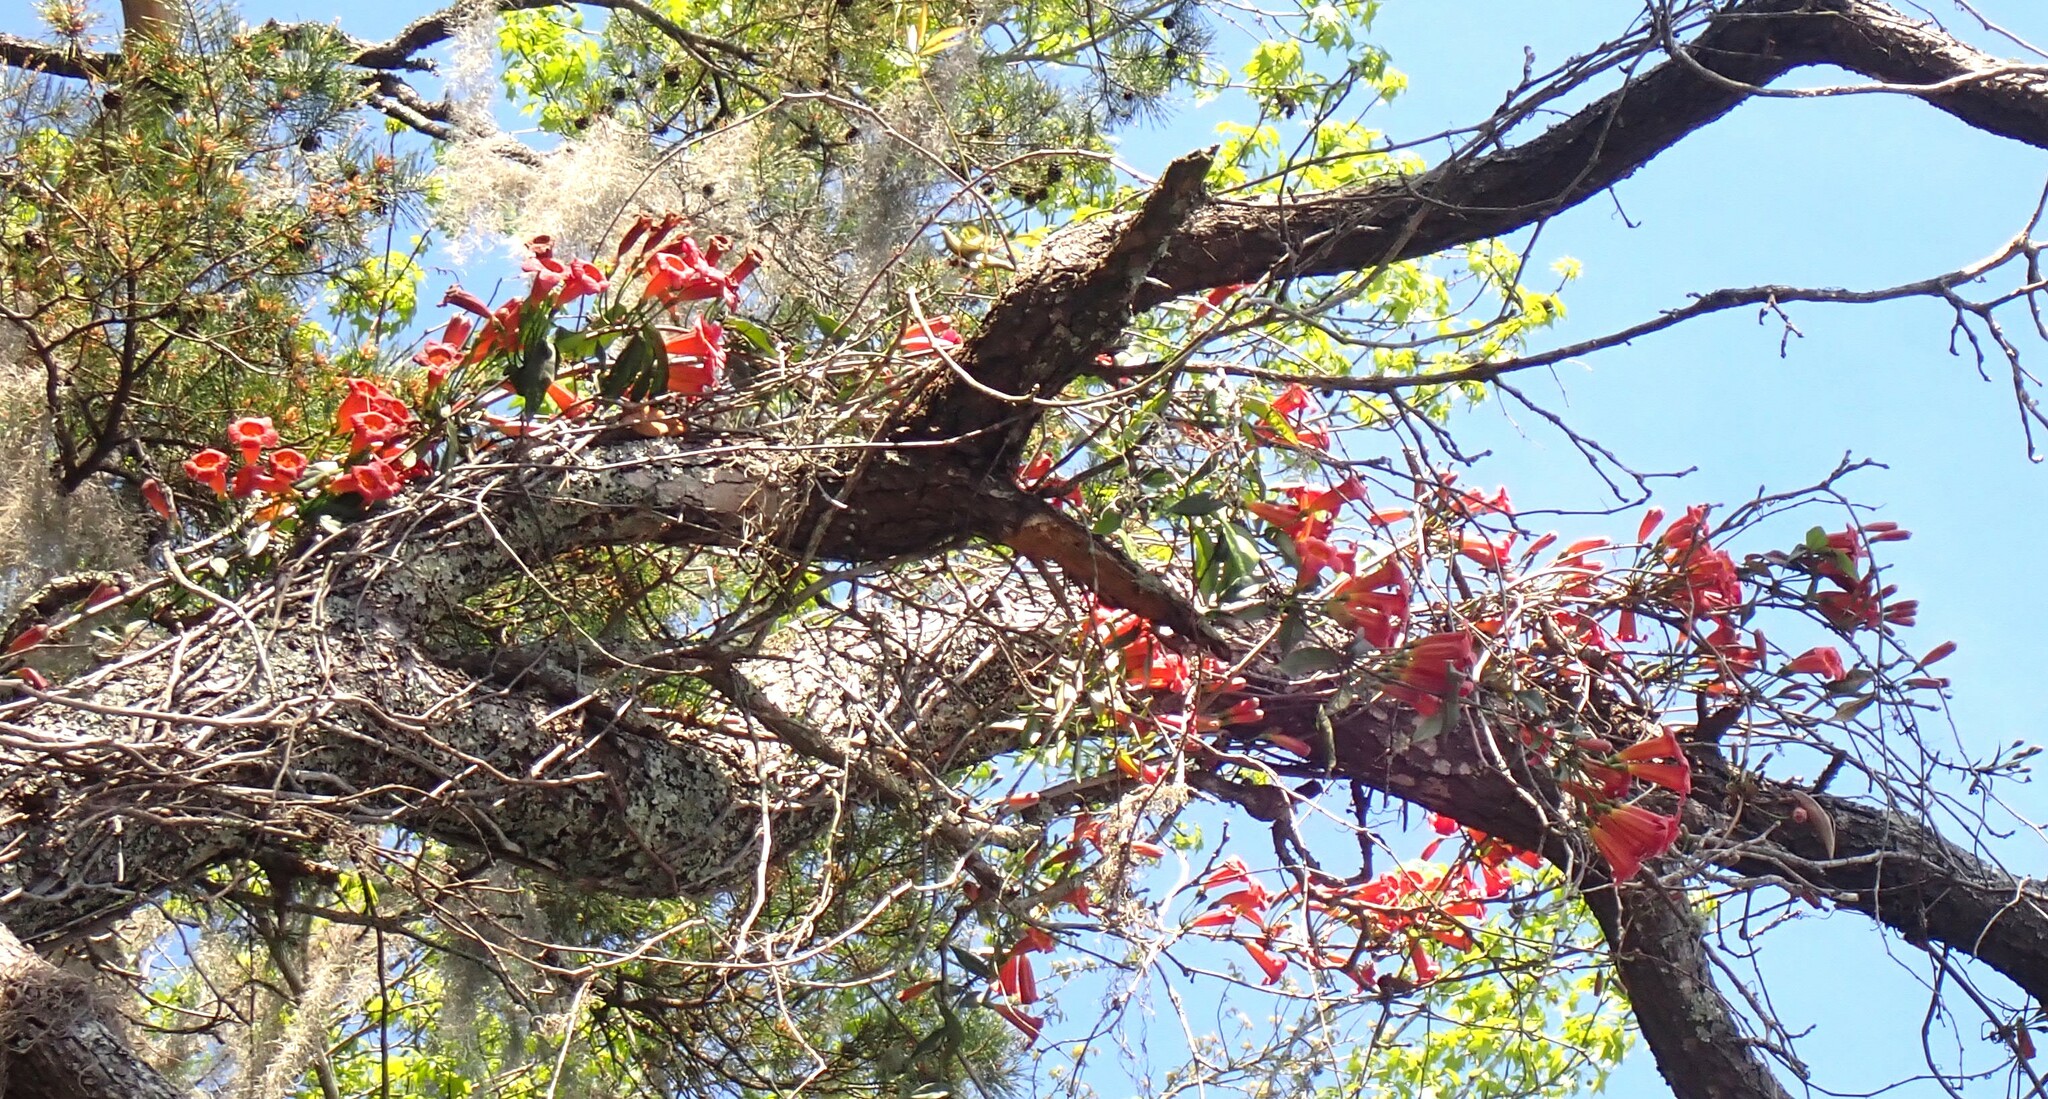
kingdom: Plantae
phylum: Tracheophyta
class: Magnoliopsida
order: Lamiales
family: Bignoniaceae
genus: Bignonia
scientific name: Bignonia capreolata
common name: Crossvine
